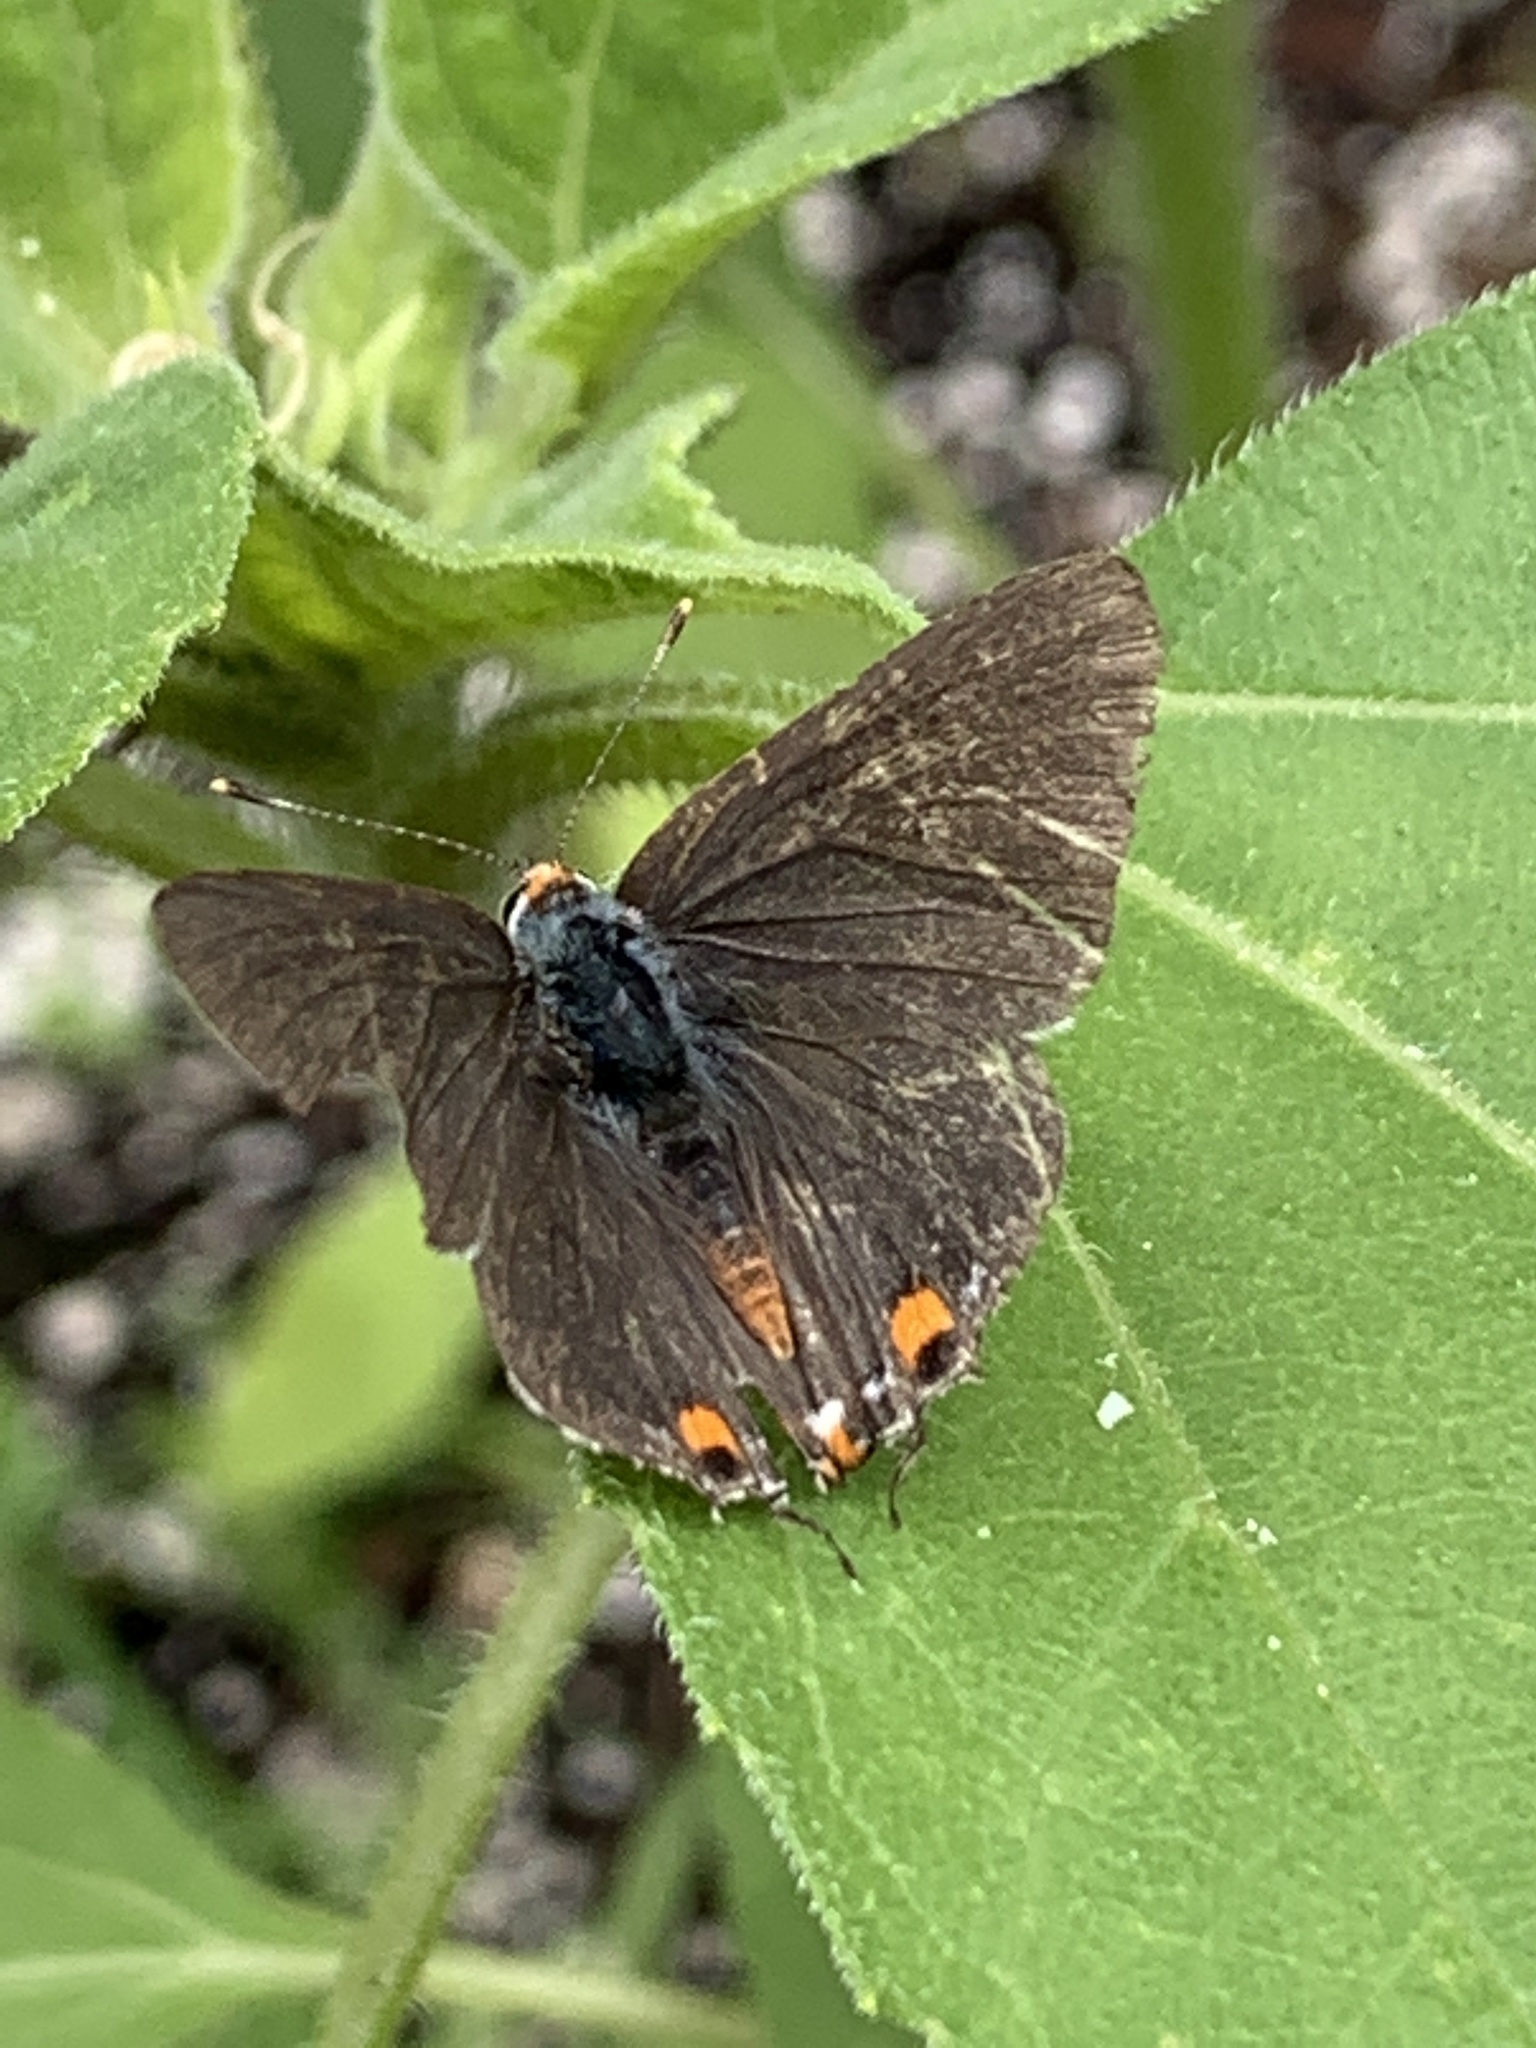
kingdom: Animalia
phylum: Arthropoda
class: Insecta
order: Lepidoptera
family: Lycaenidae
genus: Strymon
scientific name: Strymon melinus
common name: Gray hairstreak
